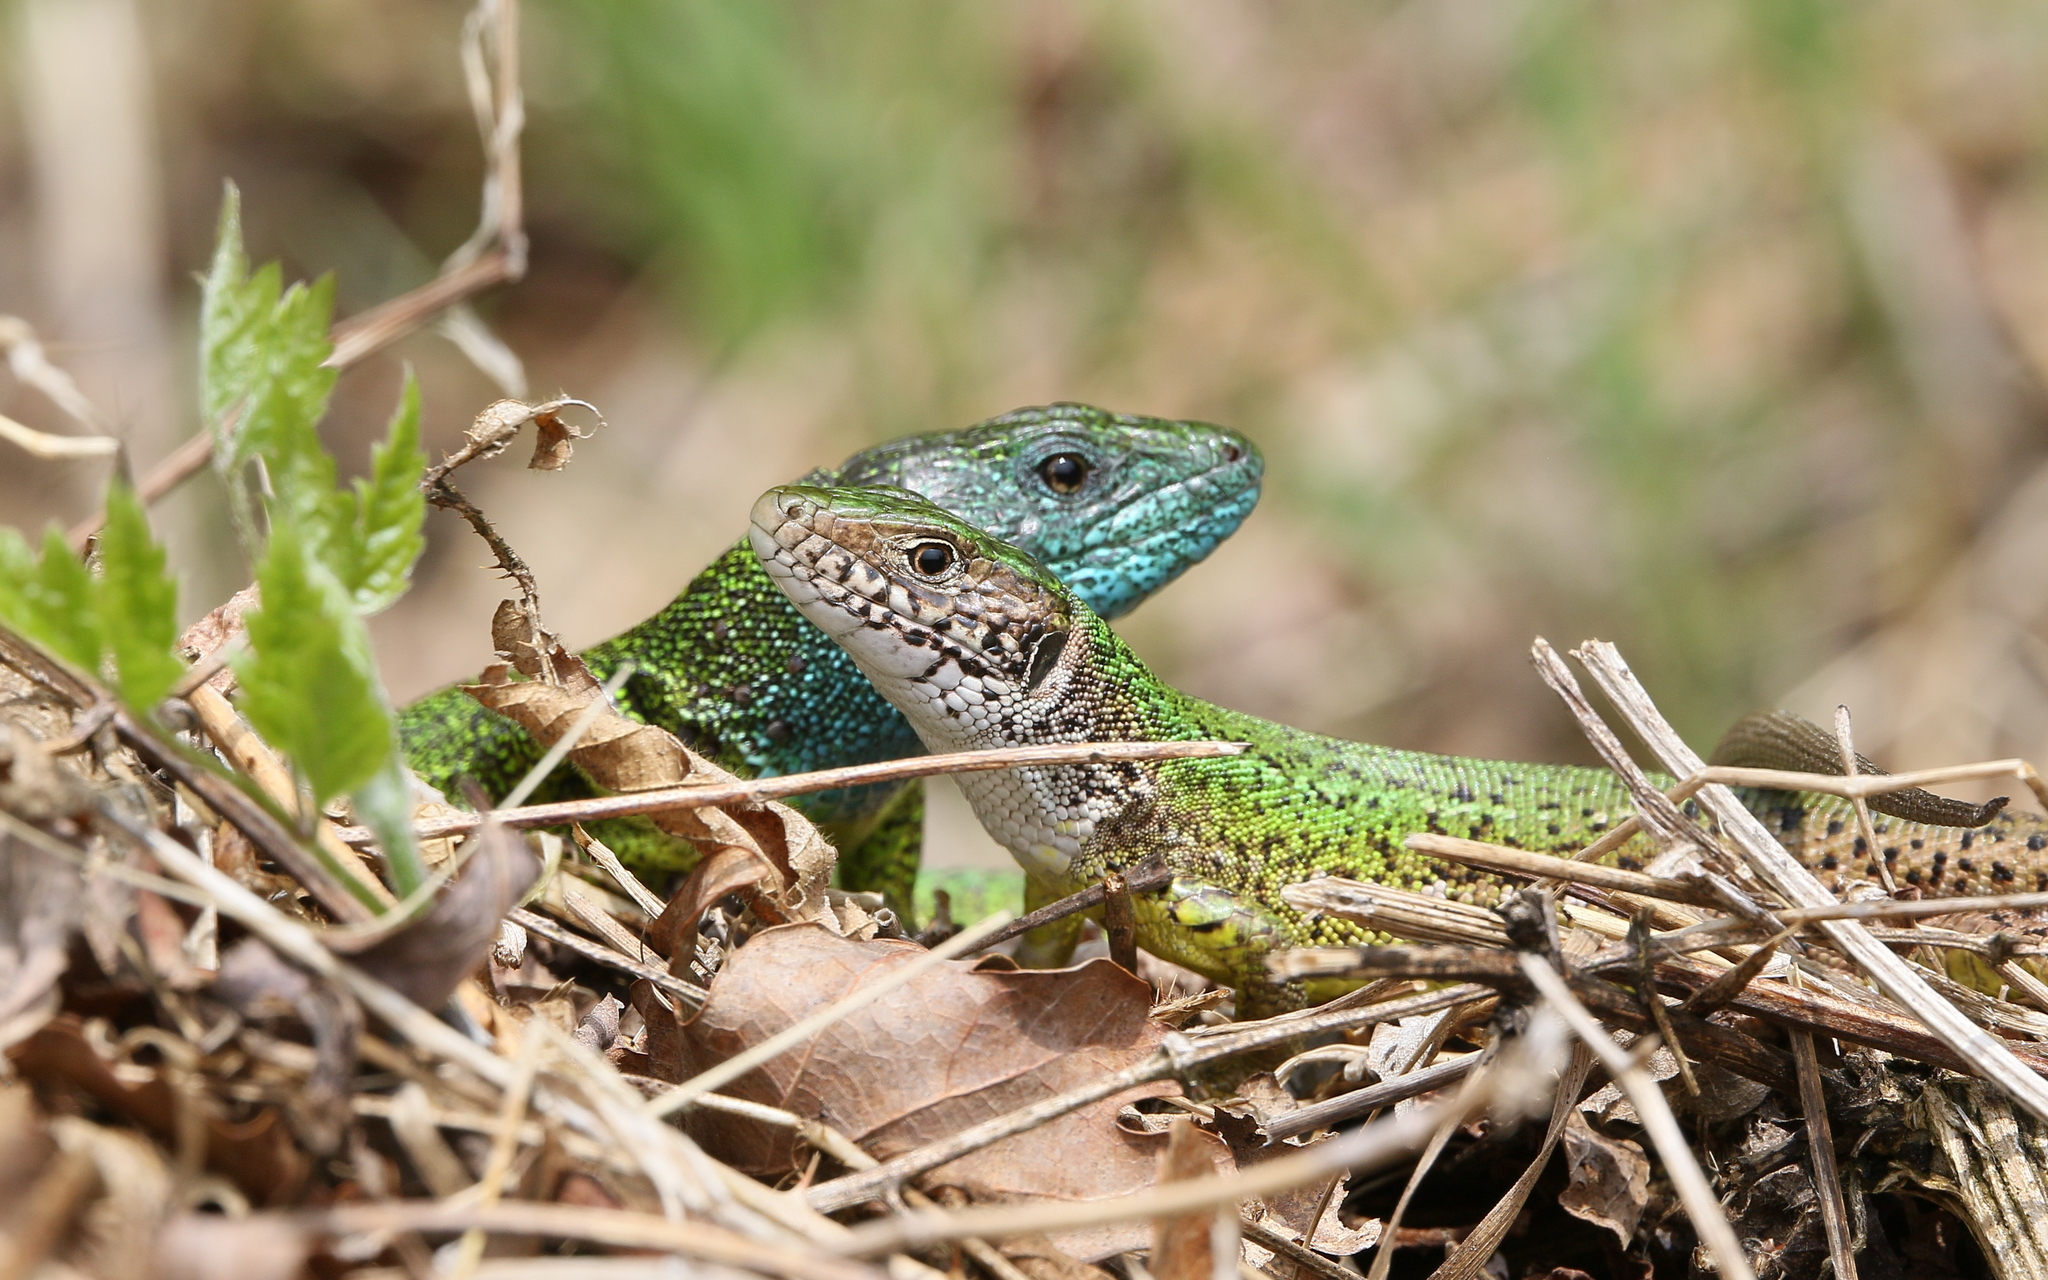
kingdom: Animalia
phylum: Chordata
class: Squamata
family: Lacertidae
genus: Lacerta
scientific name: Lacerta viridis
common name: European green lizard
